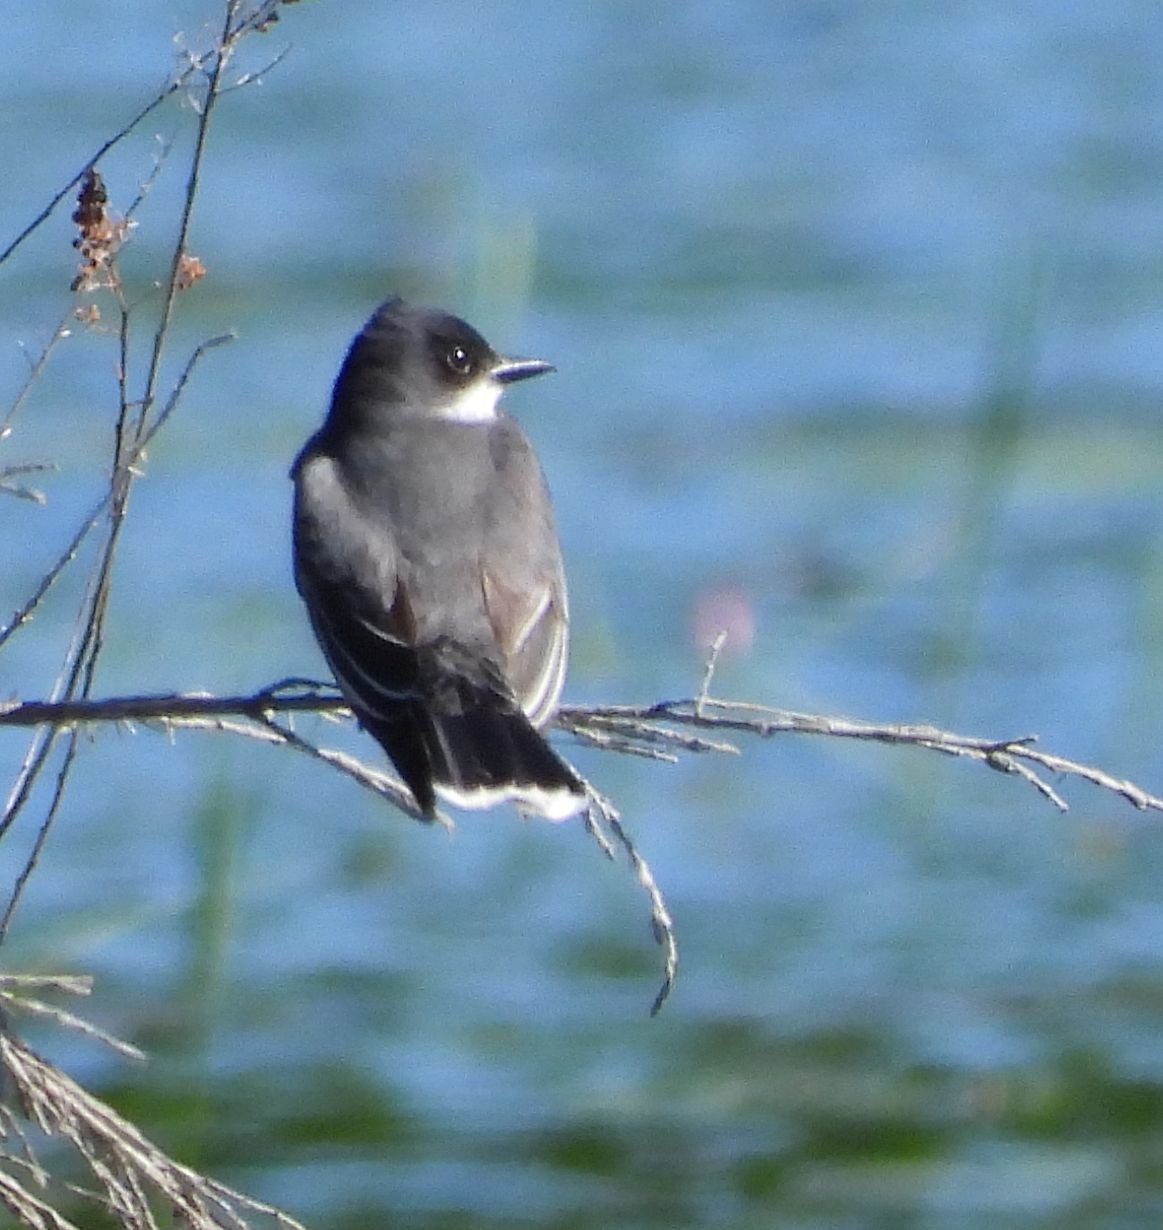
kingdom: Animalia
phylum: Chordata
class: Aves
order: Passeriformes
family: Tyrannidae
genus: Tyrannus
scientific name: Tyrannus tyrannus
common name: Eastern kingbird
